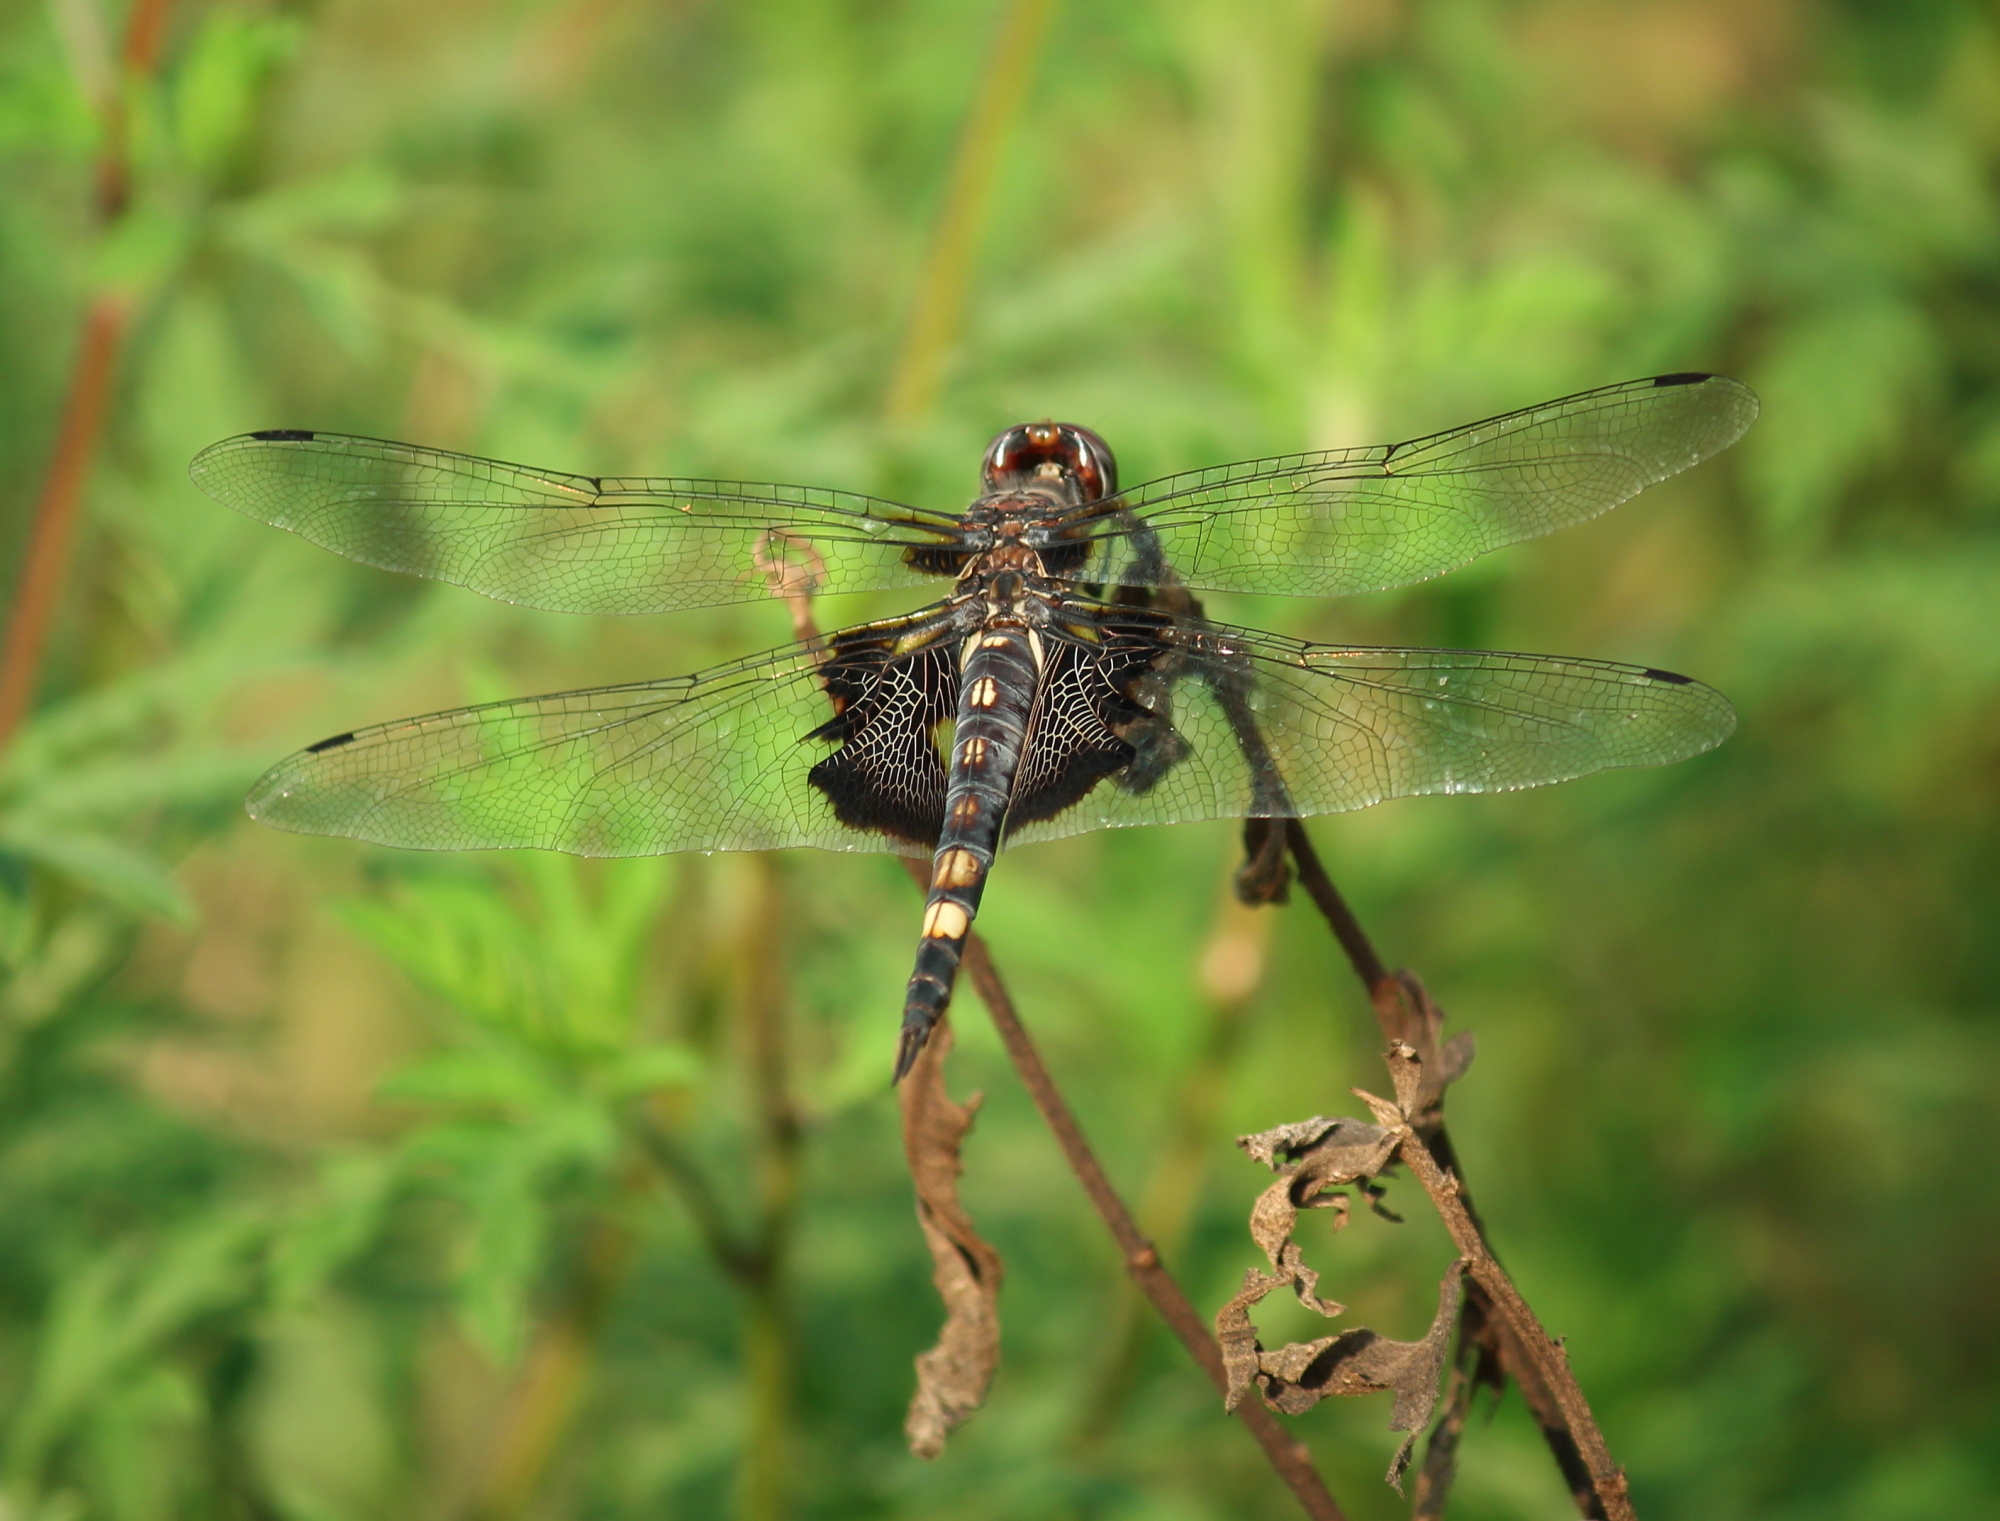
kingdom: Animalia
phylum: Arthropoda
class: Insecta
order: Odonata
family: Libellulidae
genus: Tramea
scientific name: Tramea lacerata
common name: Black saddlebags
